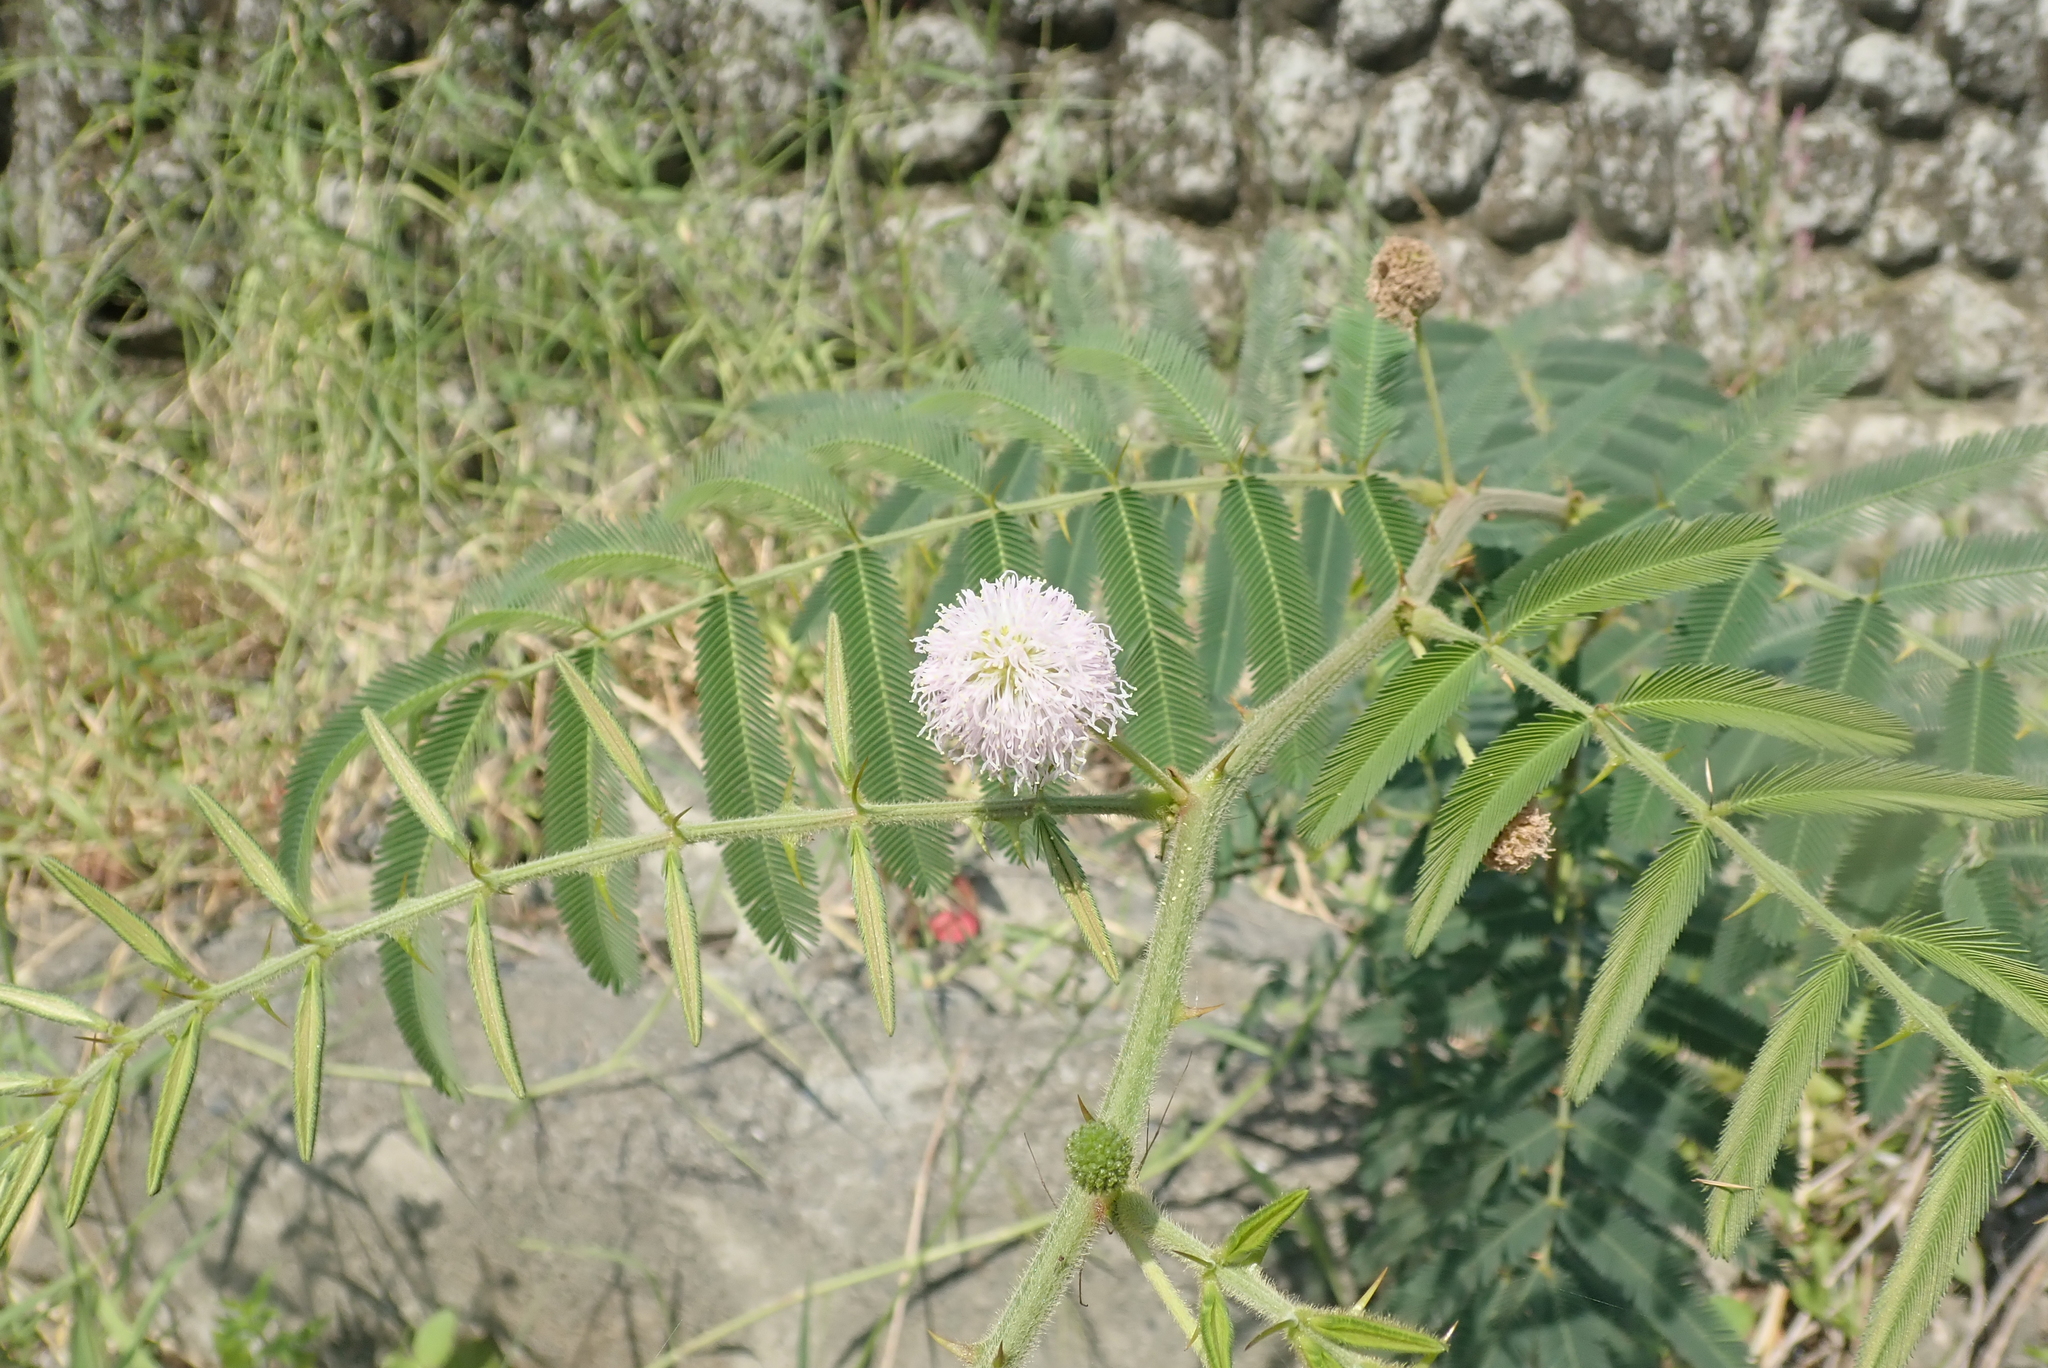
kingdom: Plantae
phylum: Tracheophyta
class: Magnoliopsida
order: Fabales
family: Fabaceae
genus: Mimosa
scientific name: Mimosa pigra
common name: Black mimosa
